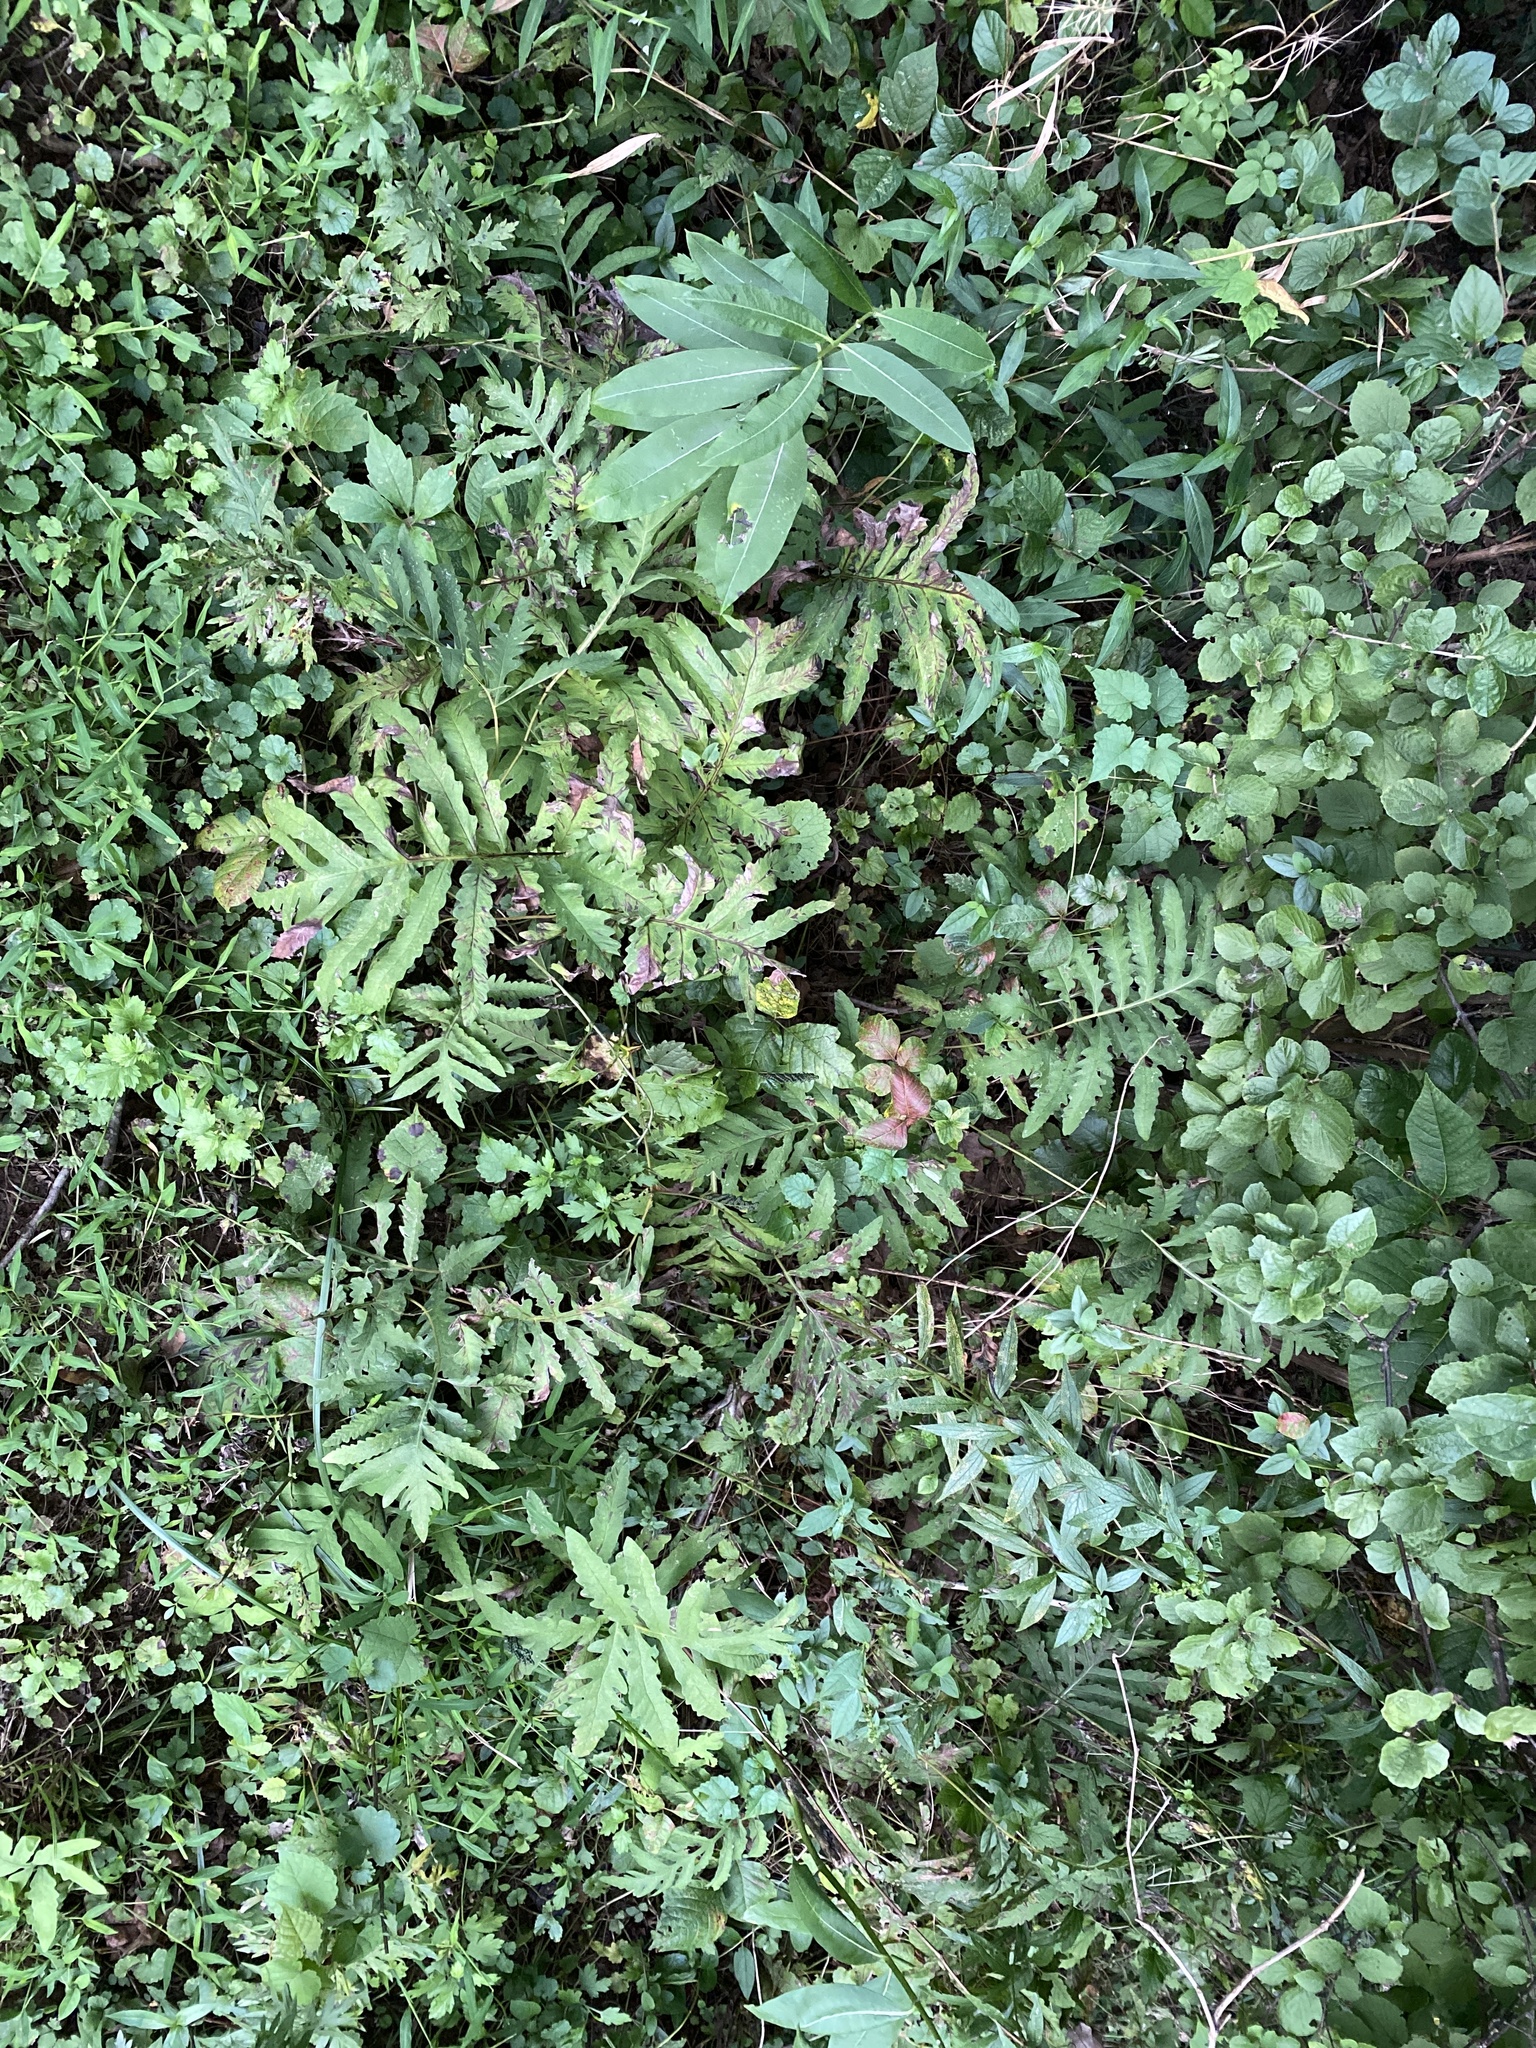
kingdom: Plantae
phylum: Tracheophyta
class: Polypodiopsida
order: Polypodiales
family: Onocleaceae
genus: Onoclea
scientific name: Onoclea sensibilis
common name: Sensitive fern
